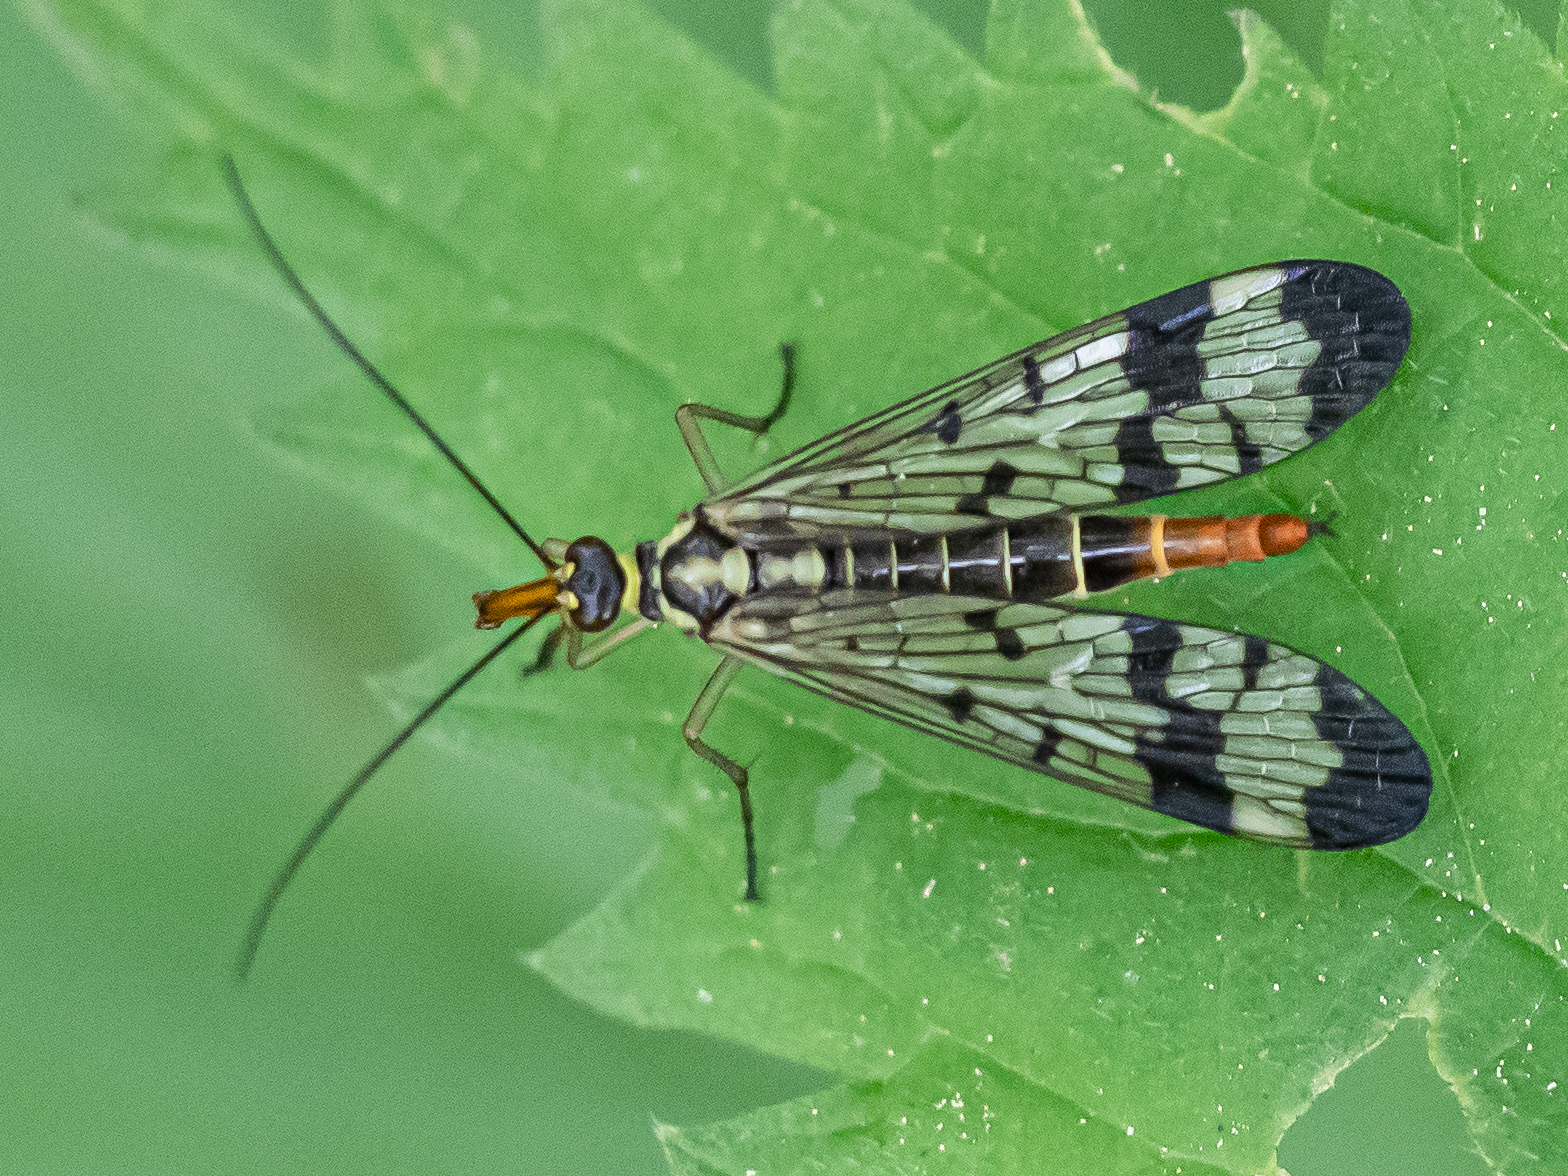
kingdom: Animalia
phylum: Arthropoda
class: Insecta
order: Mecoptera
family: Panorpidae
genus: Panorpa
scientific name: Panorpa communis
